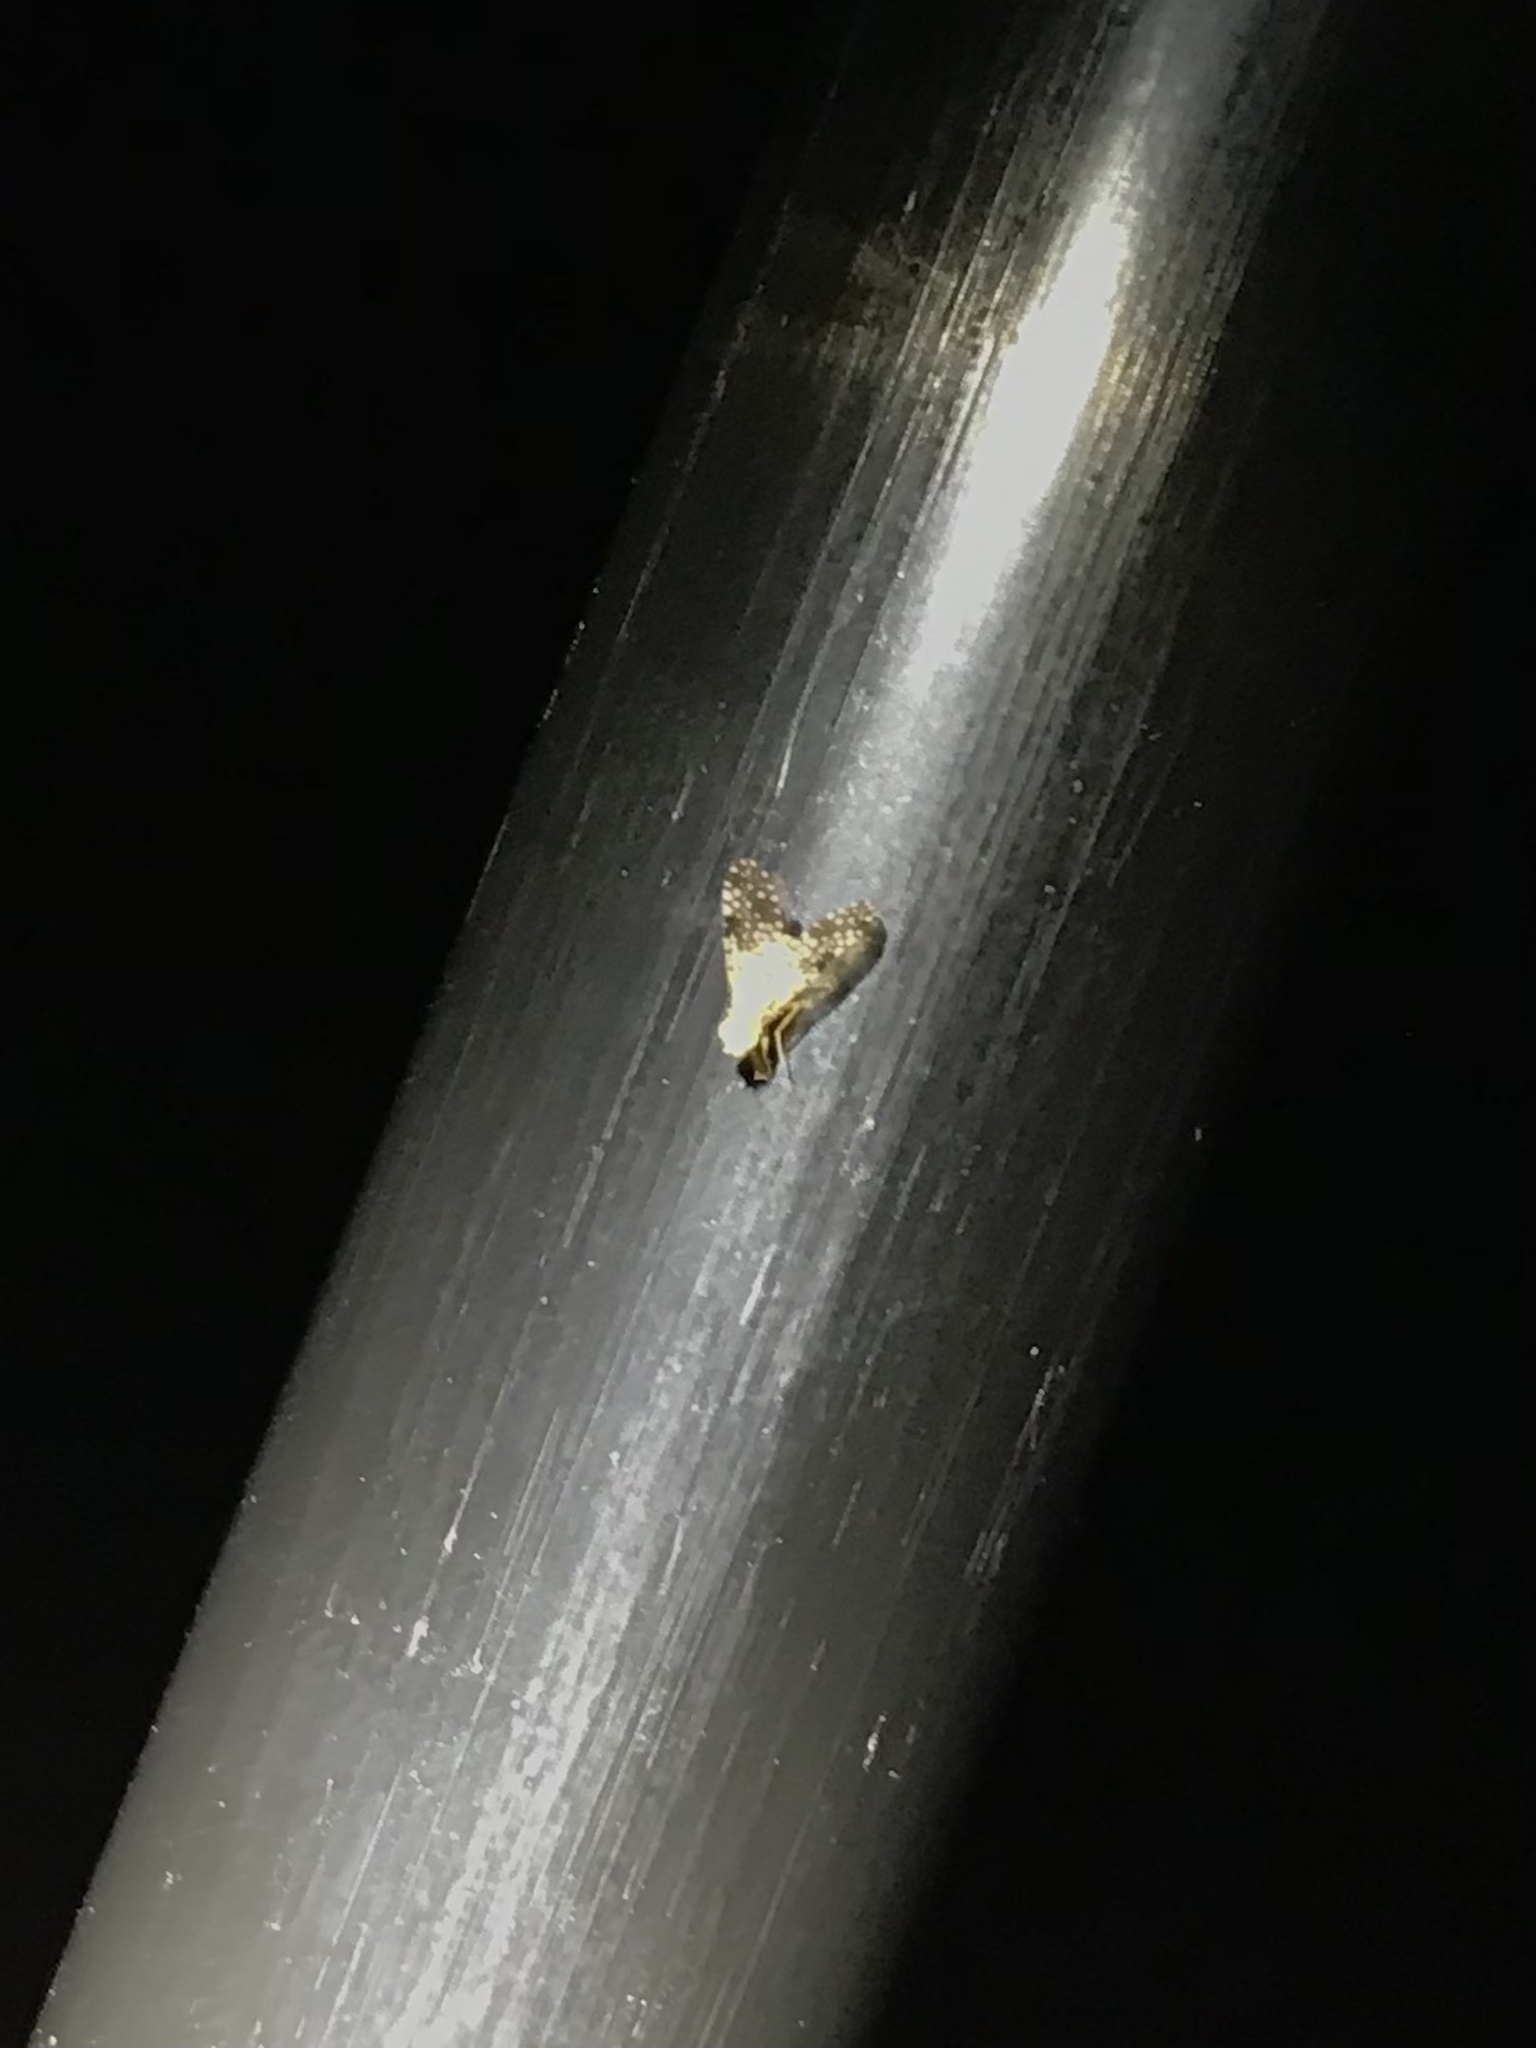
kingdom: Animalia
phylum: Arthropoda
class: Insecta
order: Diptera
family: Tephritidae
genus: Campiglossa
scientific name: Campiglossa albiceps
